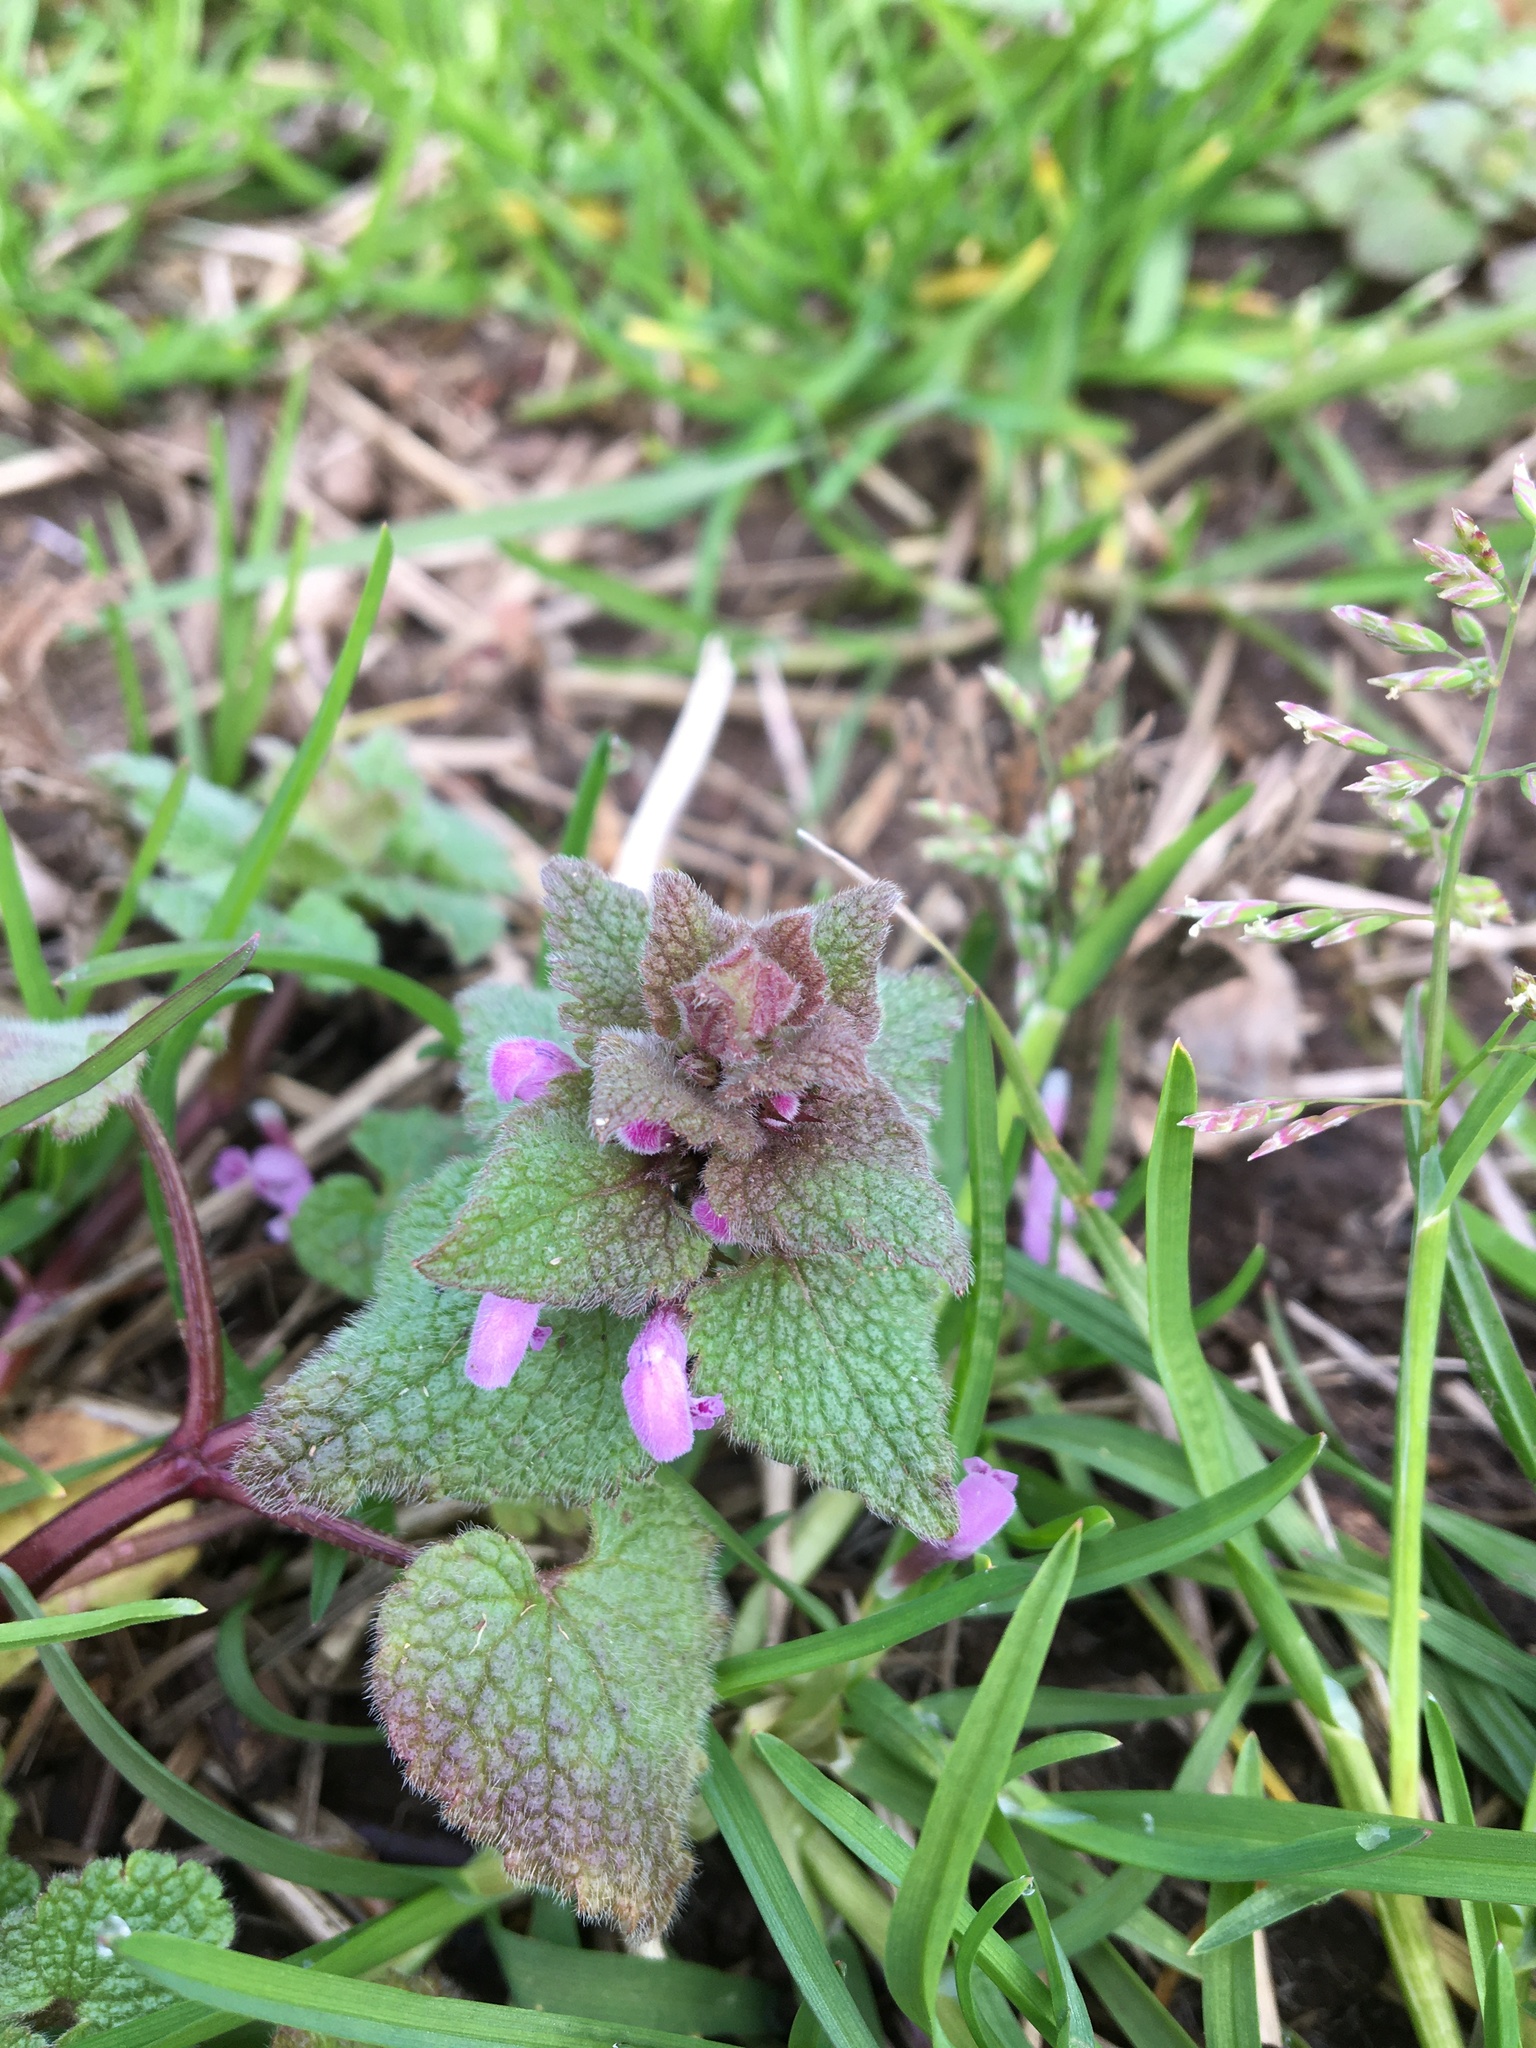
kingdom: Plantae
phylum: Tracheophyta
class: Magnoliopsida
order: Lamiales
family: Lamiaceae
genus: Lamium
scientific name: Lamium purpureum
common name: Red dead-nettle
